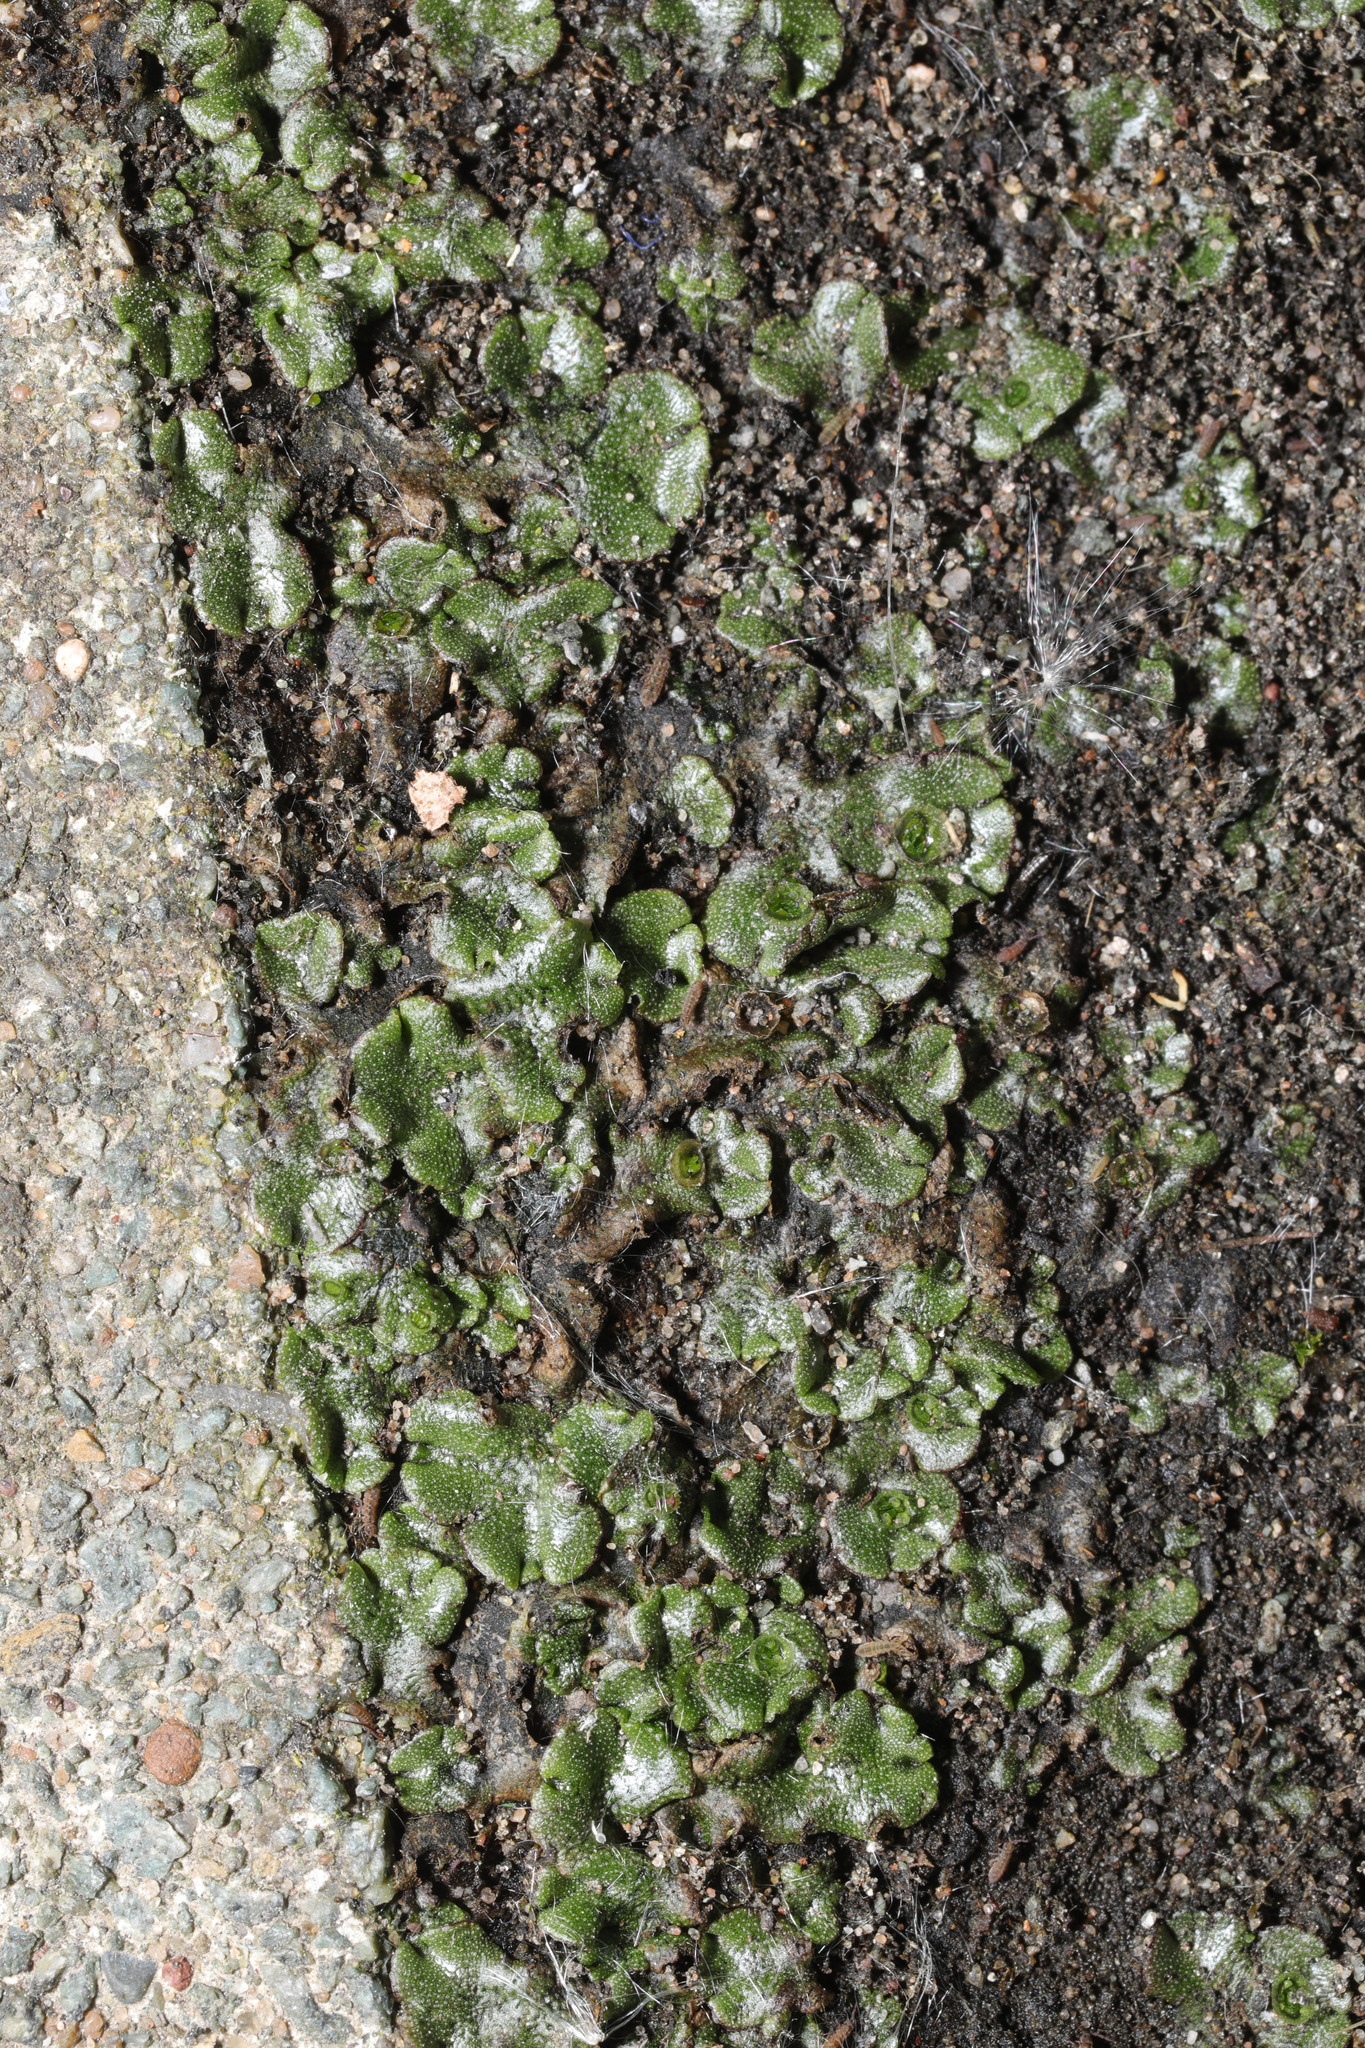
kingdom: Plantae
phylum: Marchantiophyta
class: Marchantiopsida
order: Marchantiales
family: Marchantiaceae
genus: Marchantia
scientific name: Marchantia polymorpha
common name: Common liverwort
